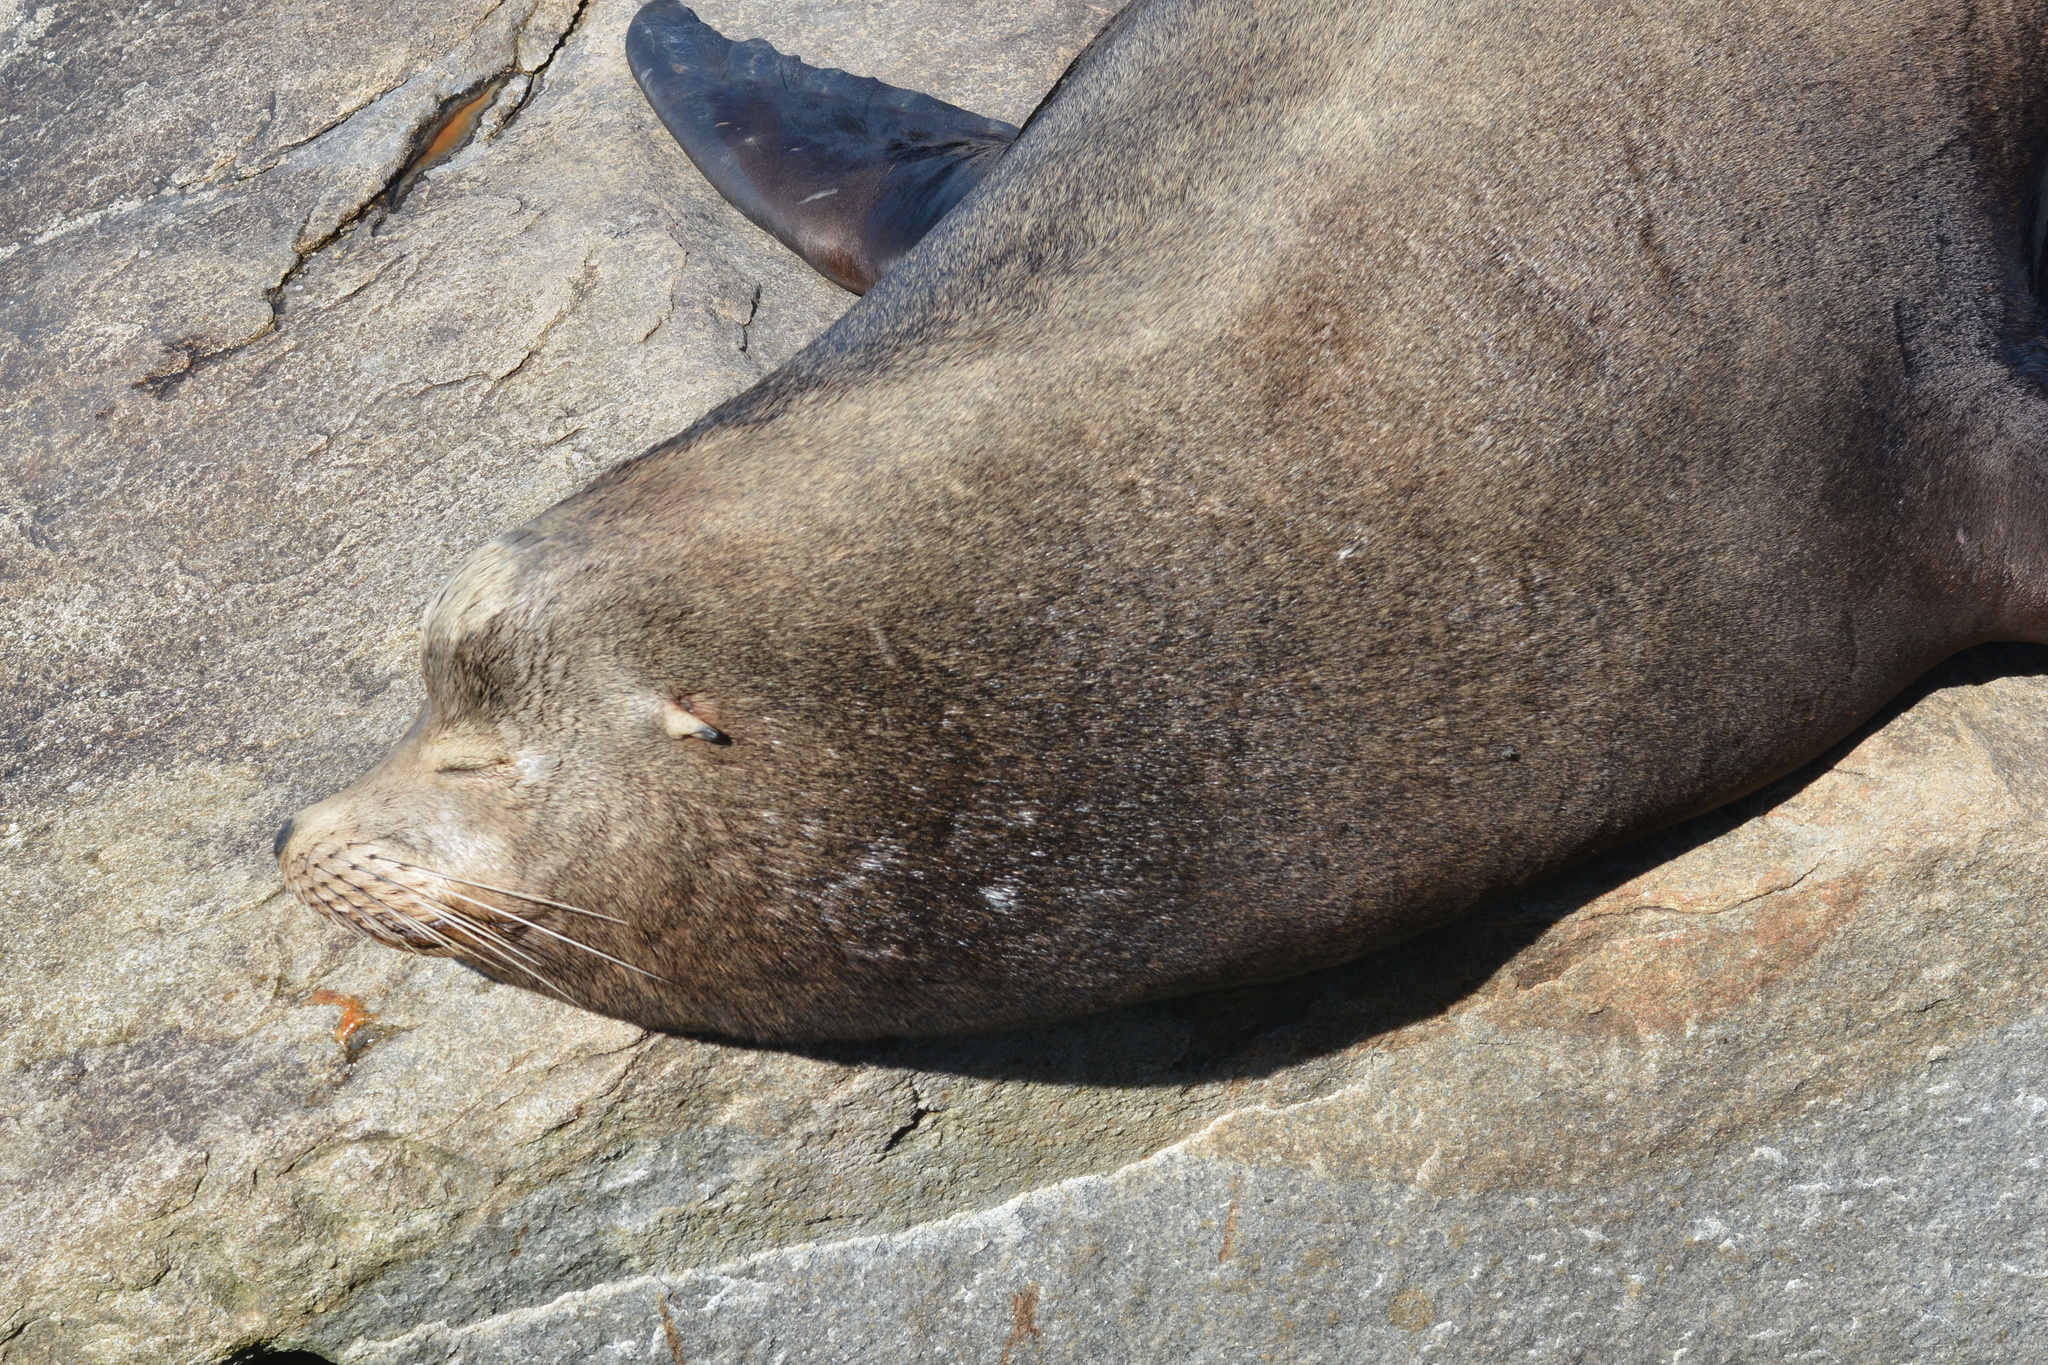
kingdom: Animalia
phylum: Chordata
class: Mammalia
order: Carnivora
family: Otariidae
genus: Zalophus
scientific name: Zalophus californianus
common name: California sea lion
